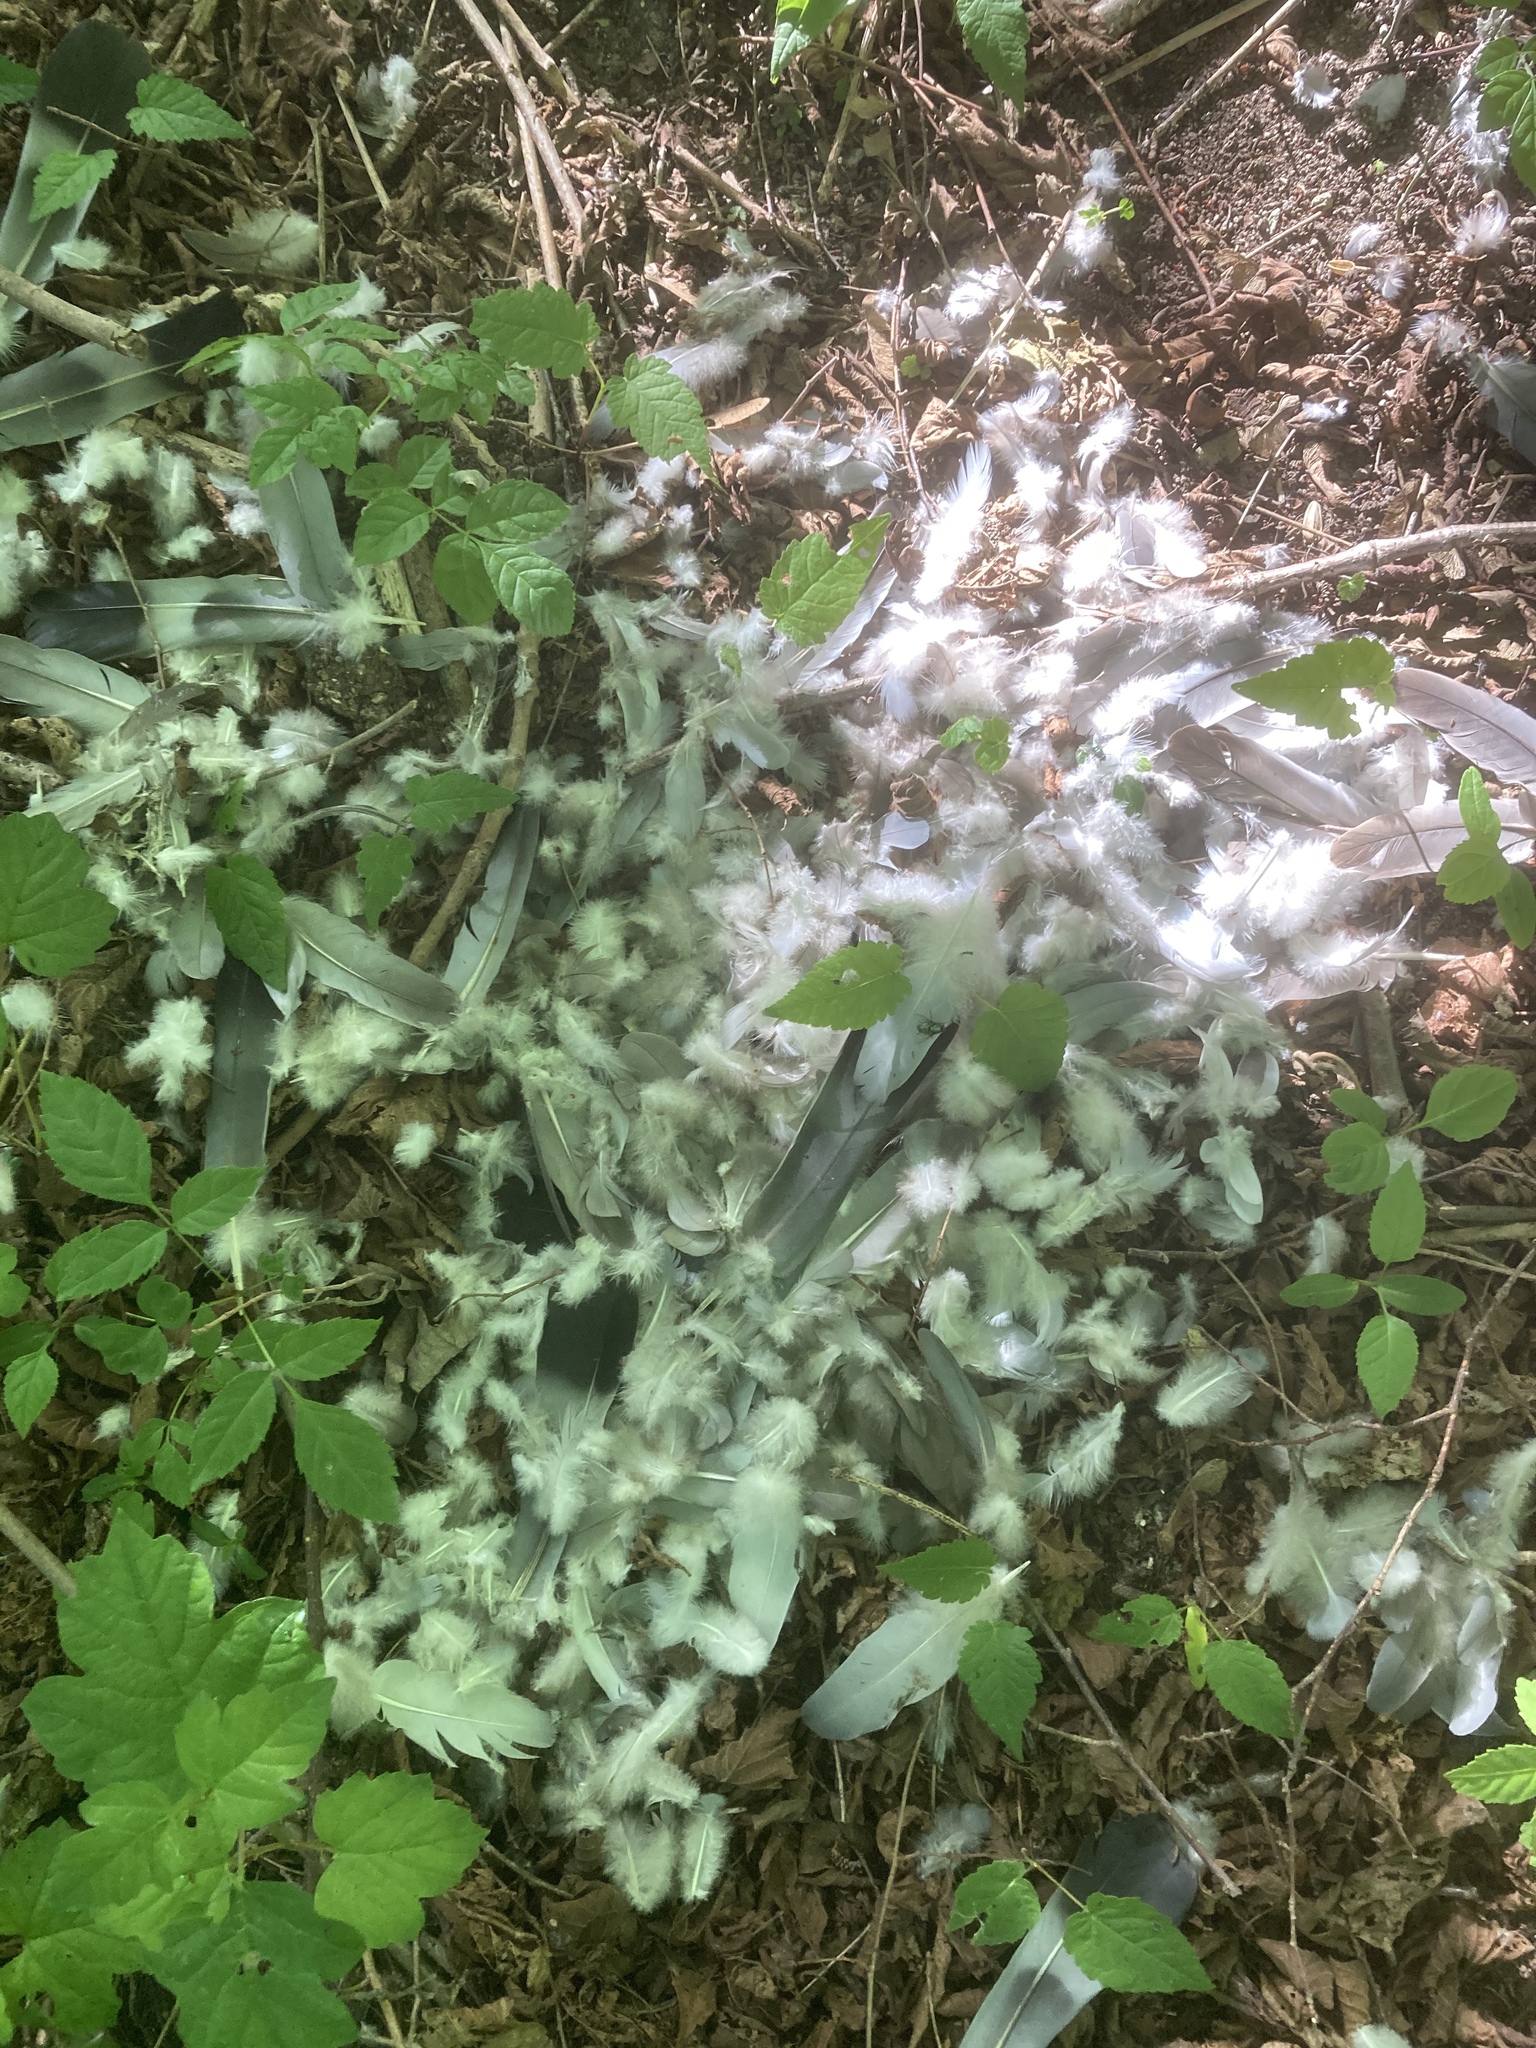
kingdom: Animalia
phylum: Chordata
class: Aves
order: Columbiformes
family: Columbidae
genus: Columba
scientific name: Columba palumbus
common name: Common wood pigeon
